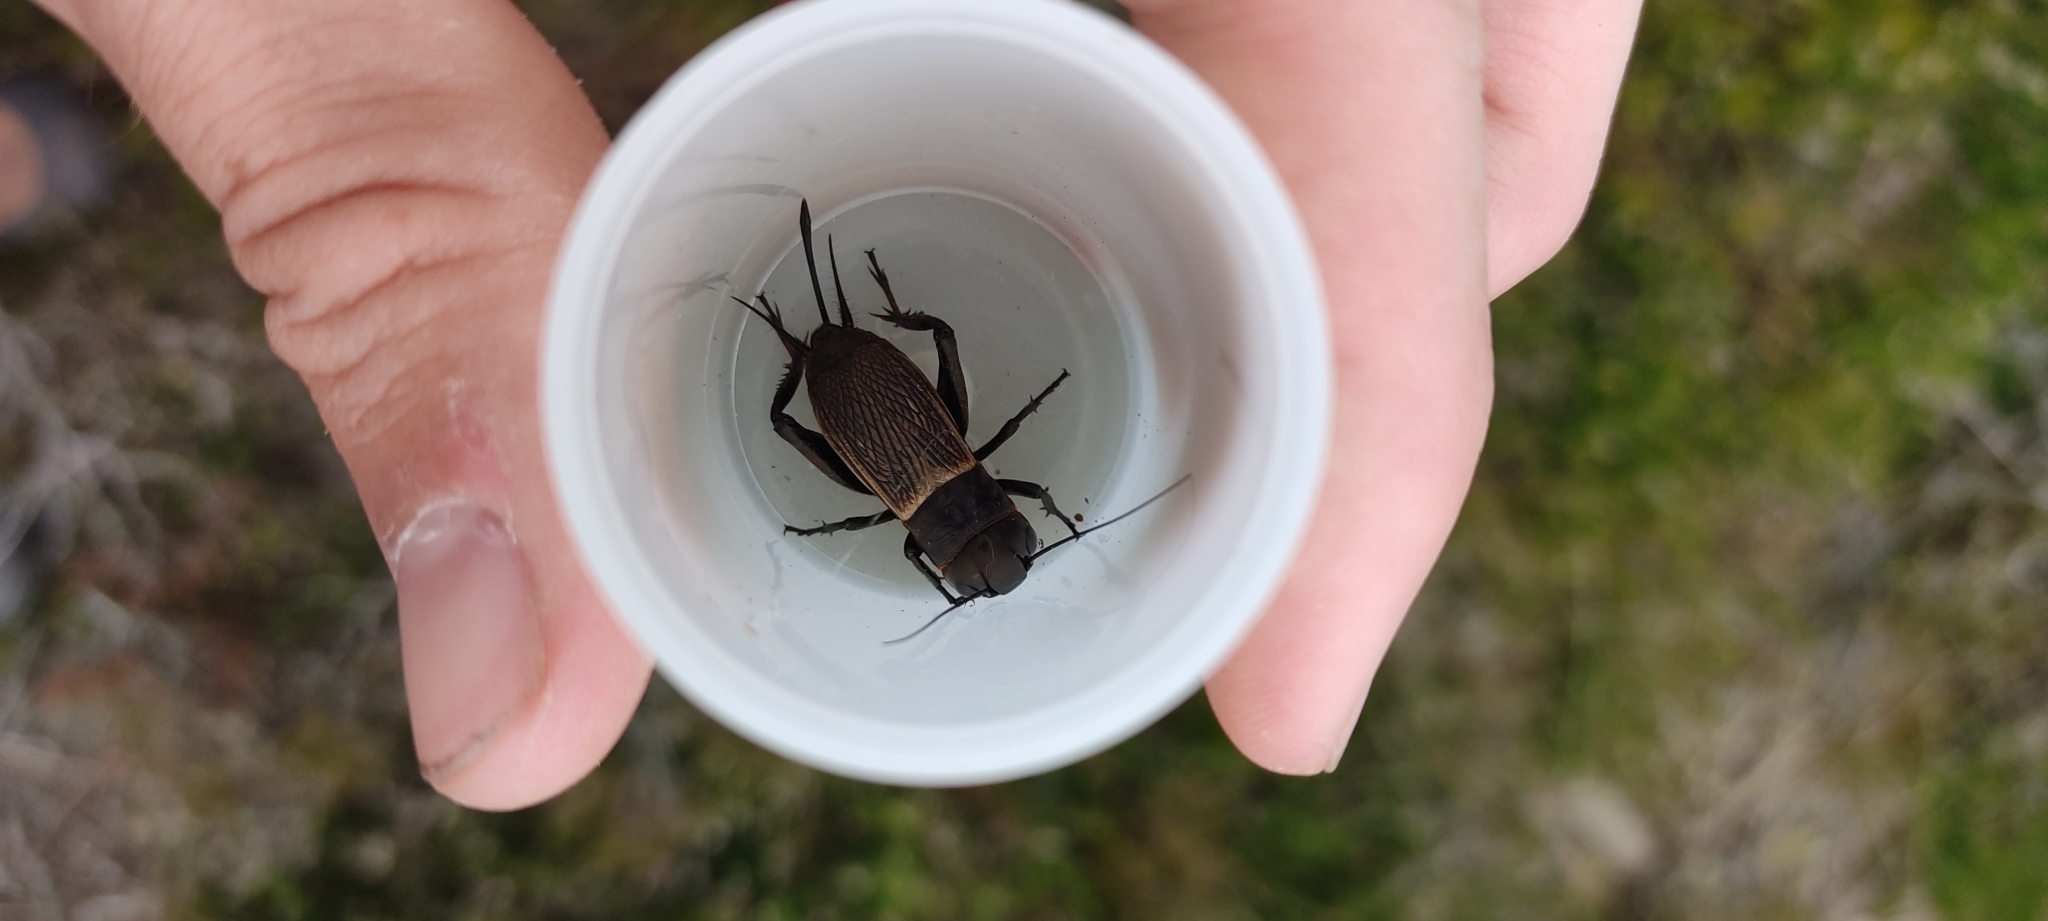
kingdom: Animalia
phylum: Arthropoda
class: Insecta
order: Orthoptera
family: Gryllidae
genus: Gryllus
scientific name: Gryllus campestris
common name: Field cricket
